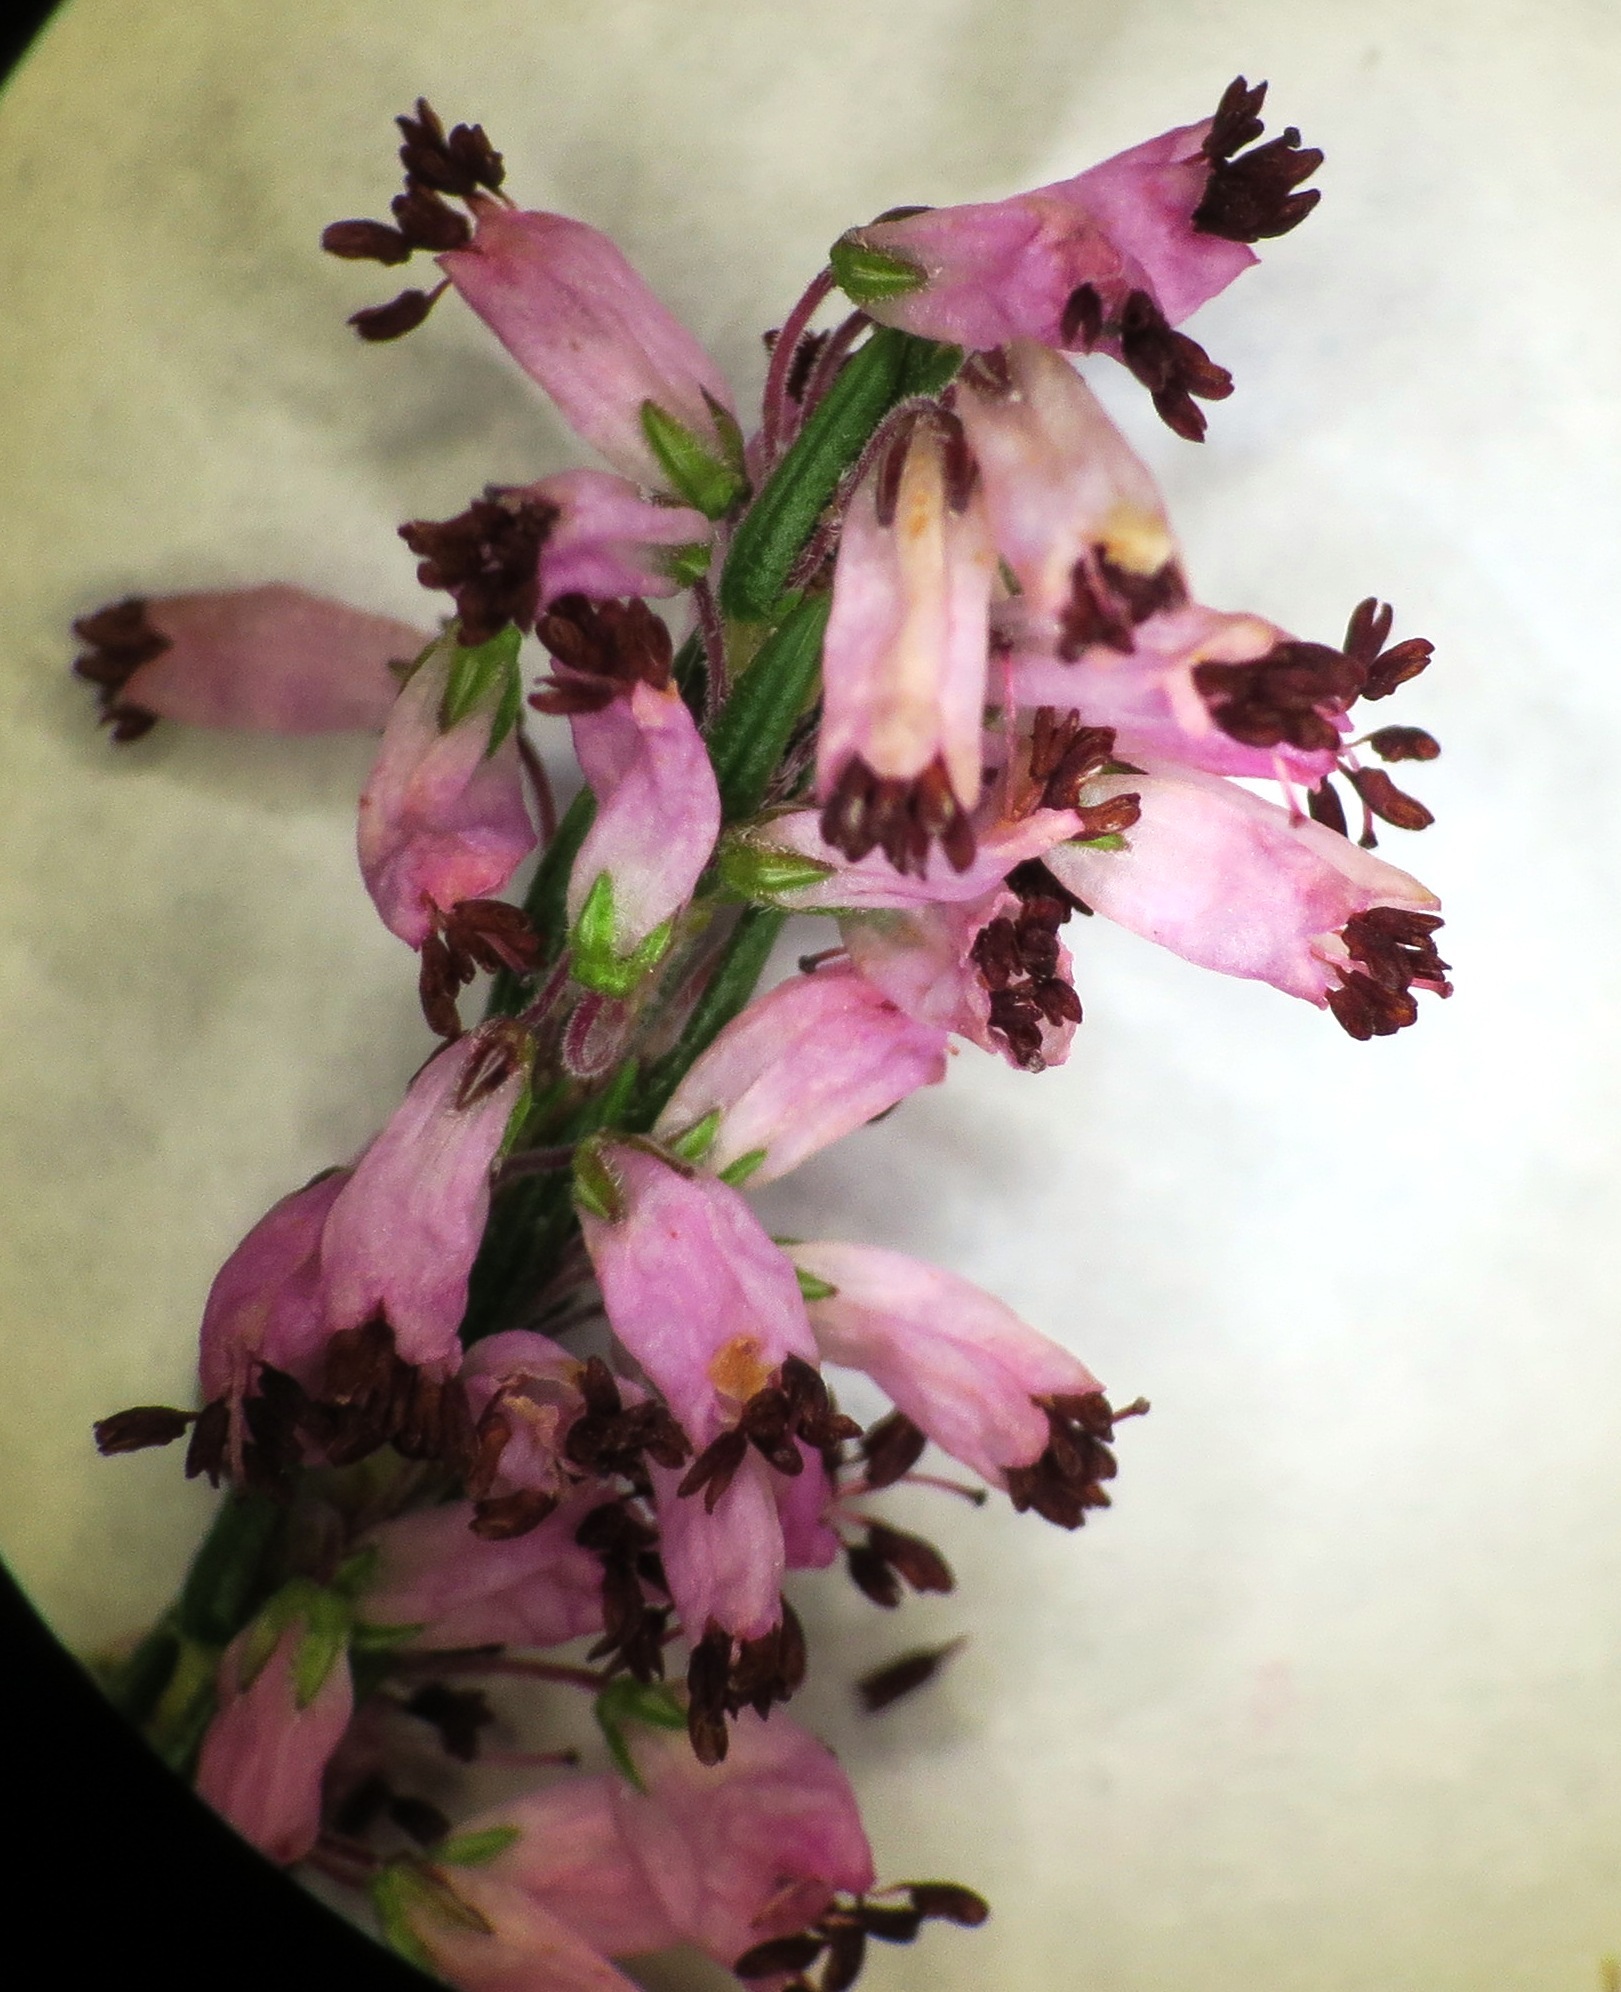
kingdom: Plantae
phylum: Tracheophyta
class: Magnoliopsida
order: Ericales
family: Ericaceae
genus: Erica
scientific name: Erica nudiflora
